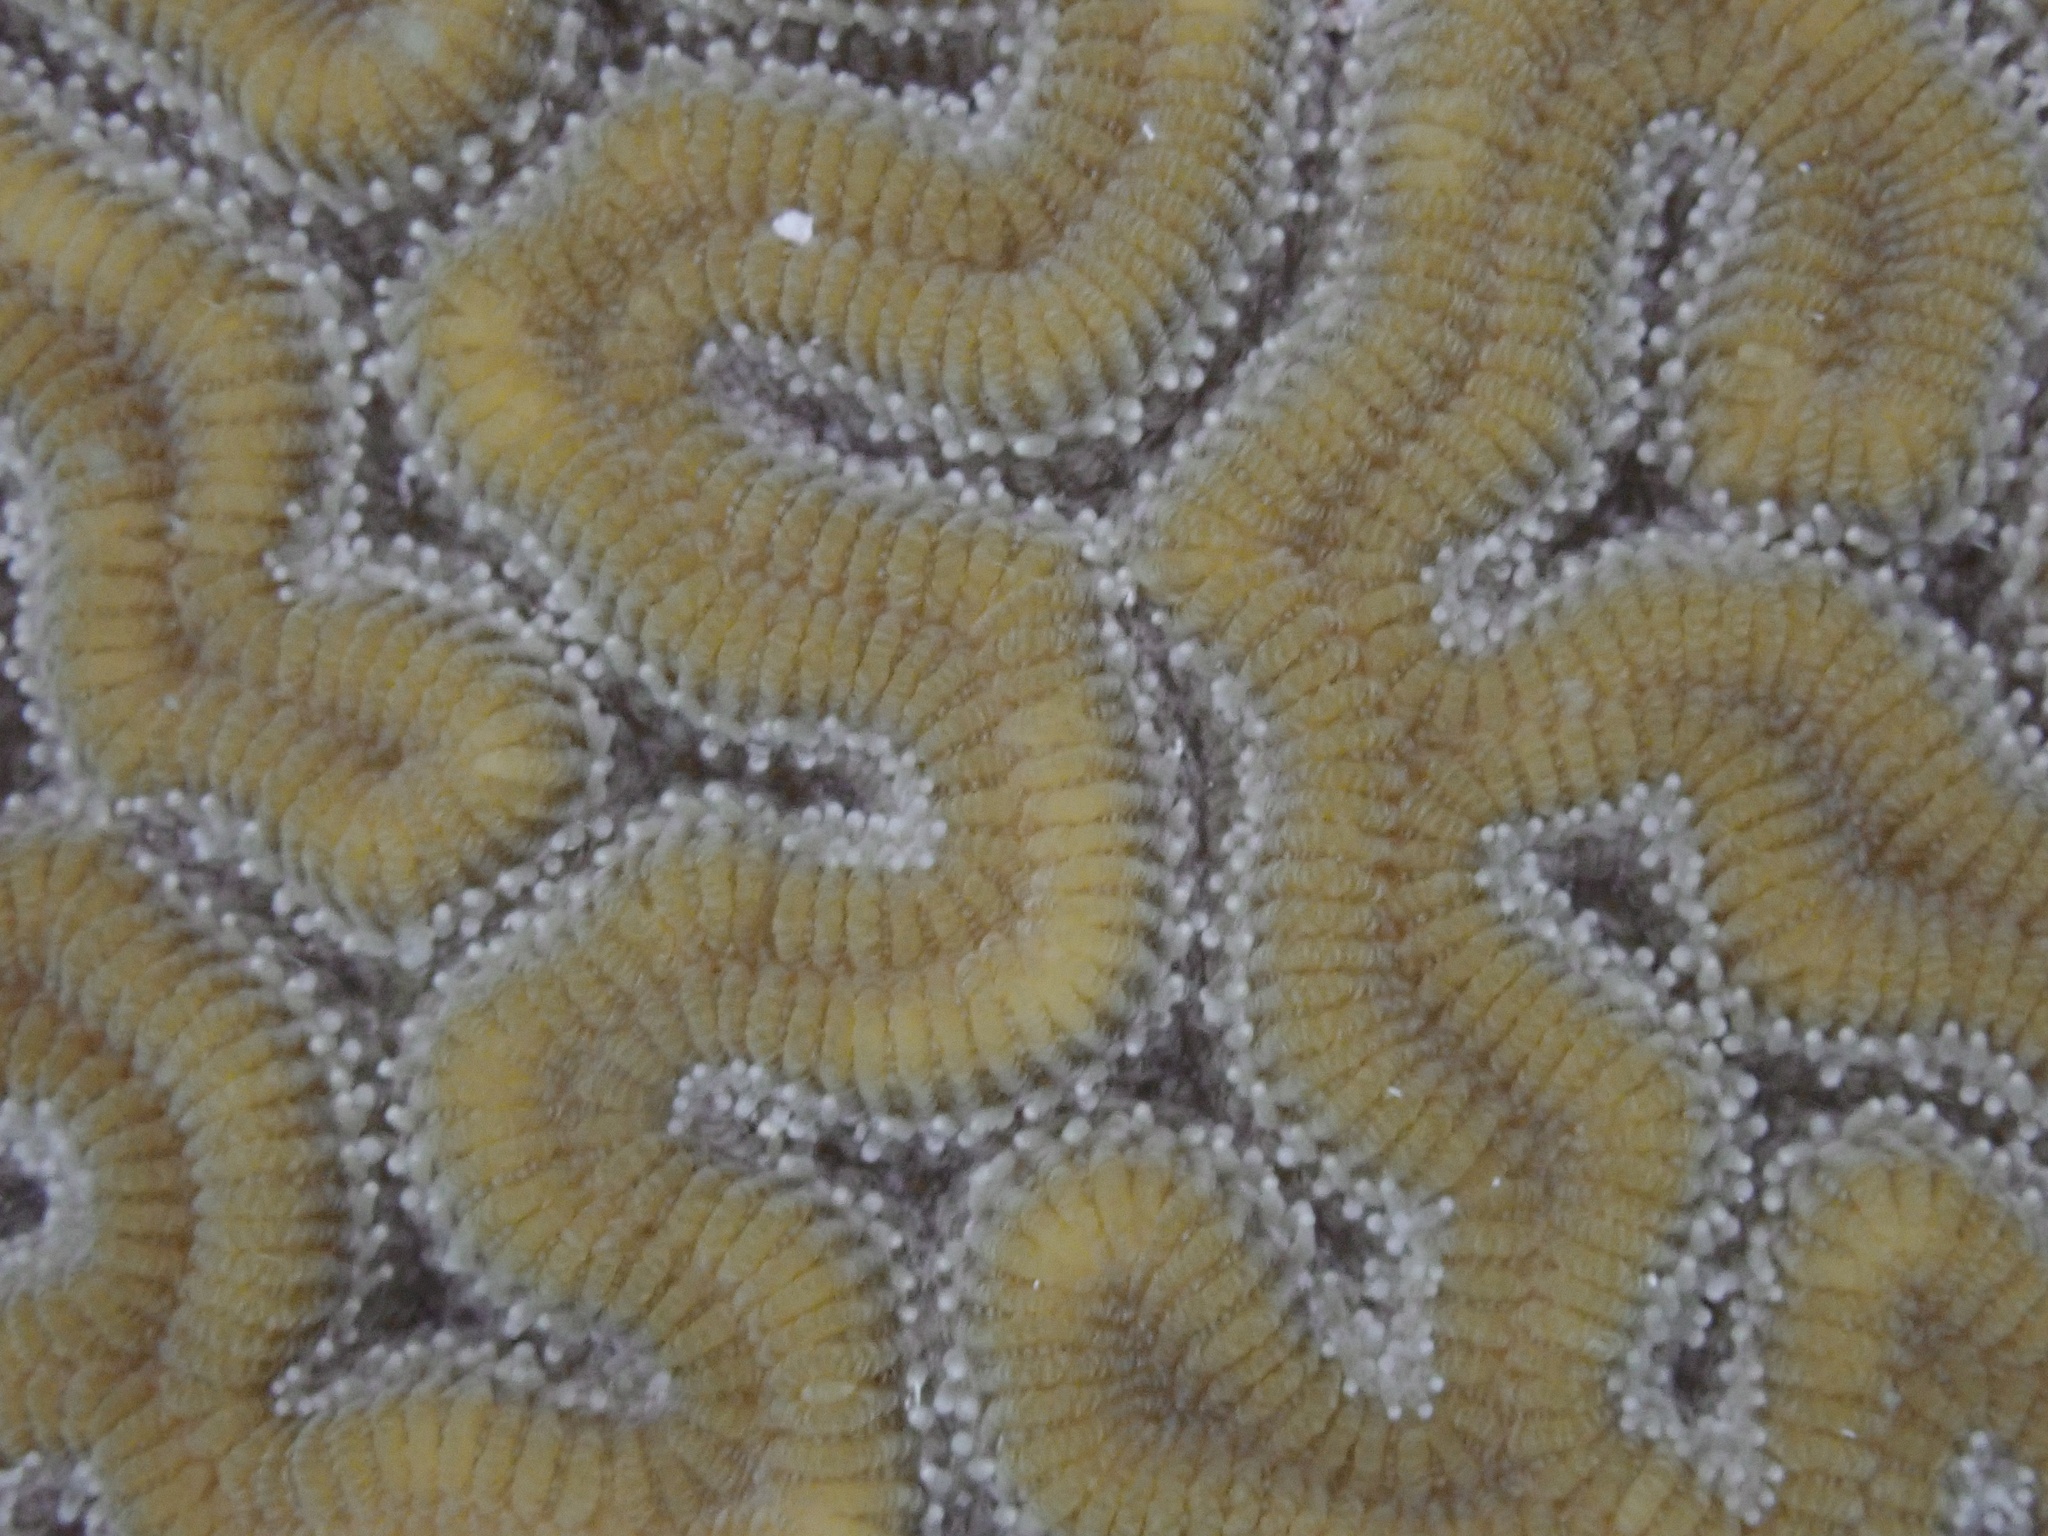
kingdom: Animalia
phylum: Cnidaria
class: Anthozoa
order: Scleractinia
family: Faviidae
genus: Diploria
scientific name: Diploria labyrinthiformis
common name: Grooved brain coral
